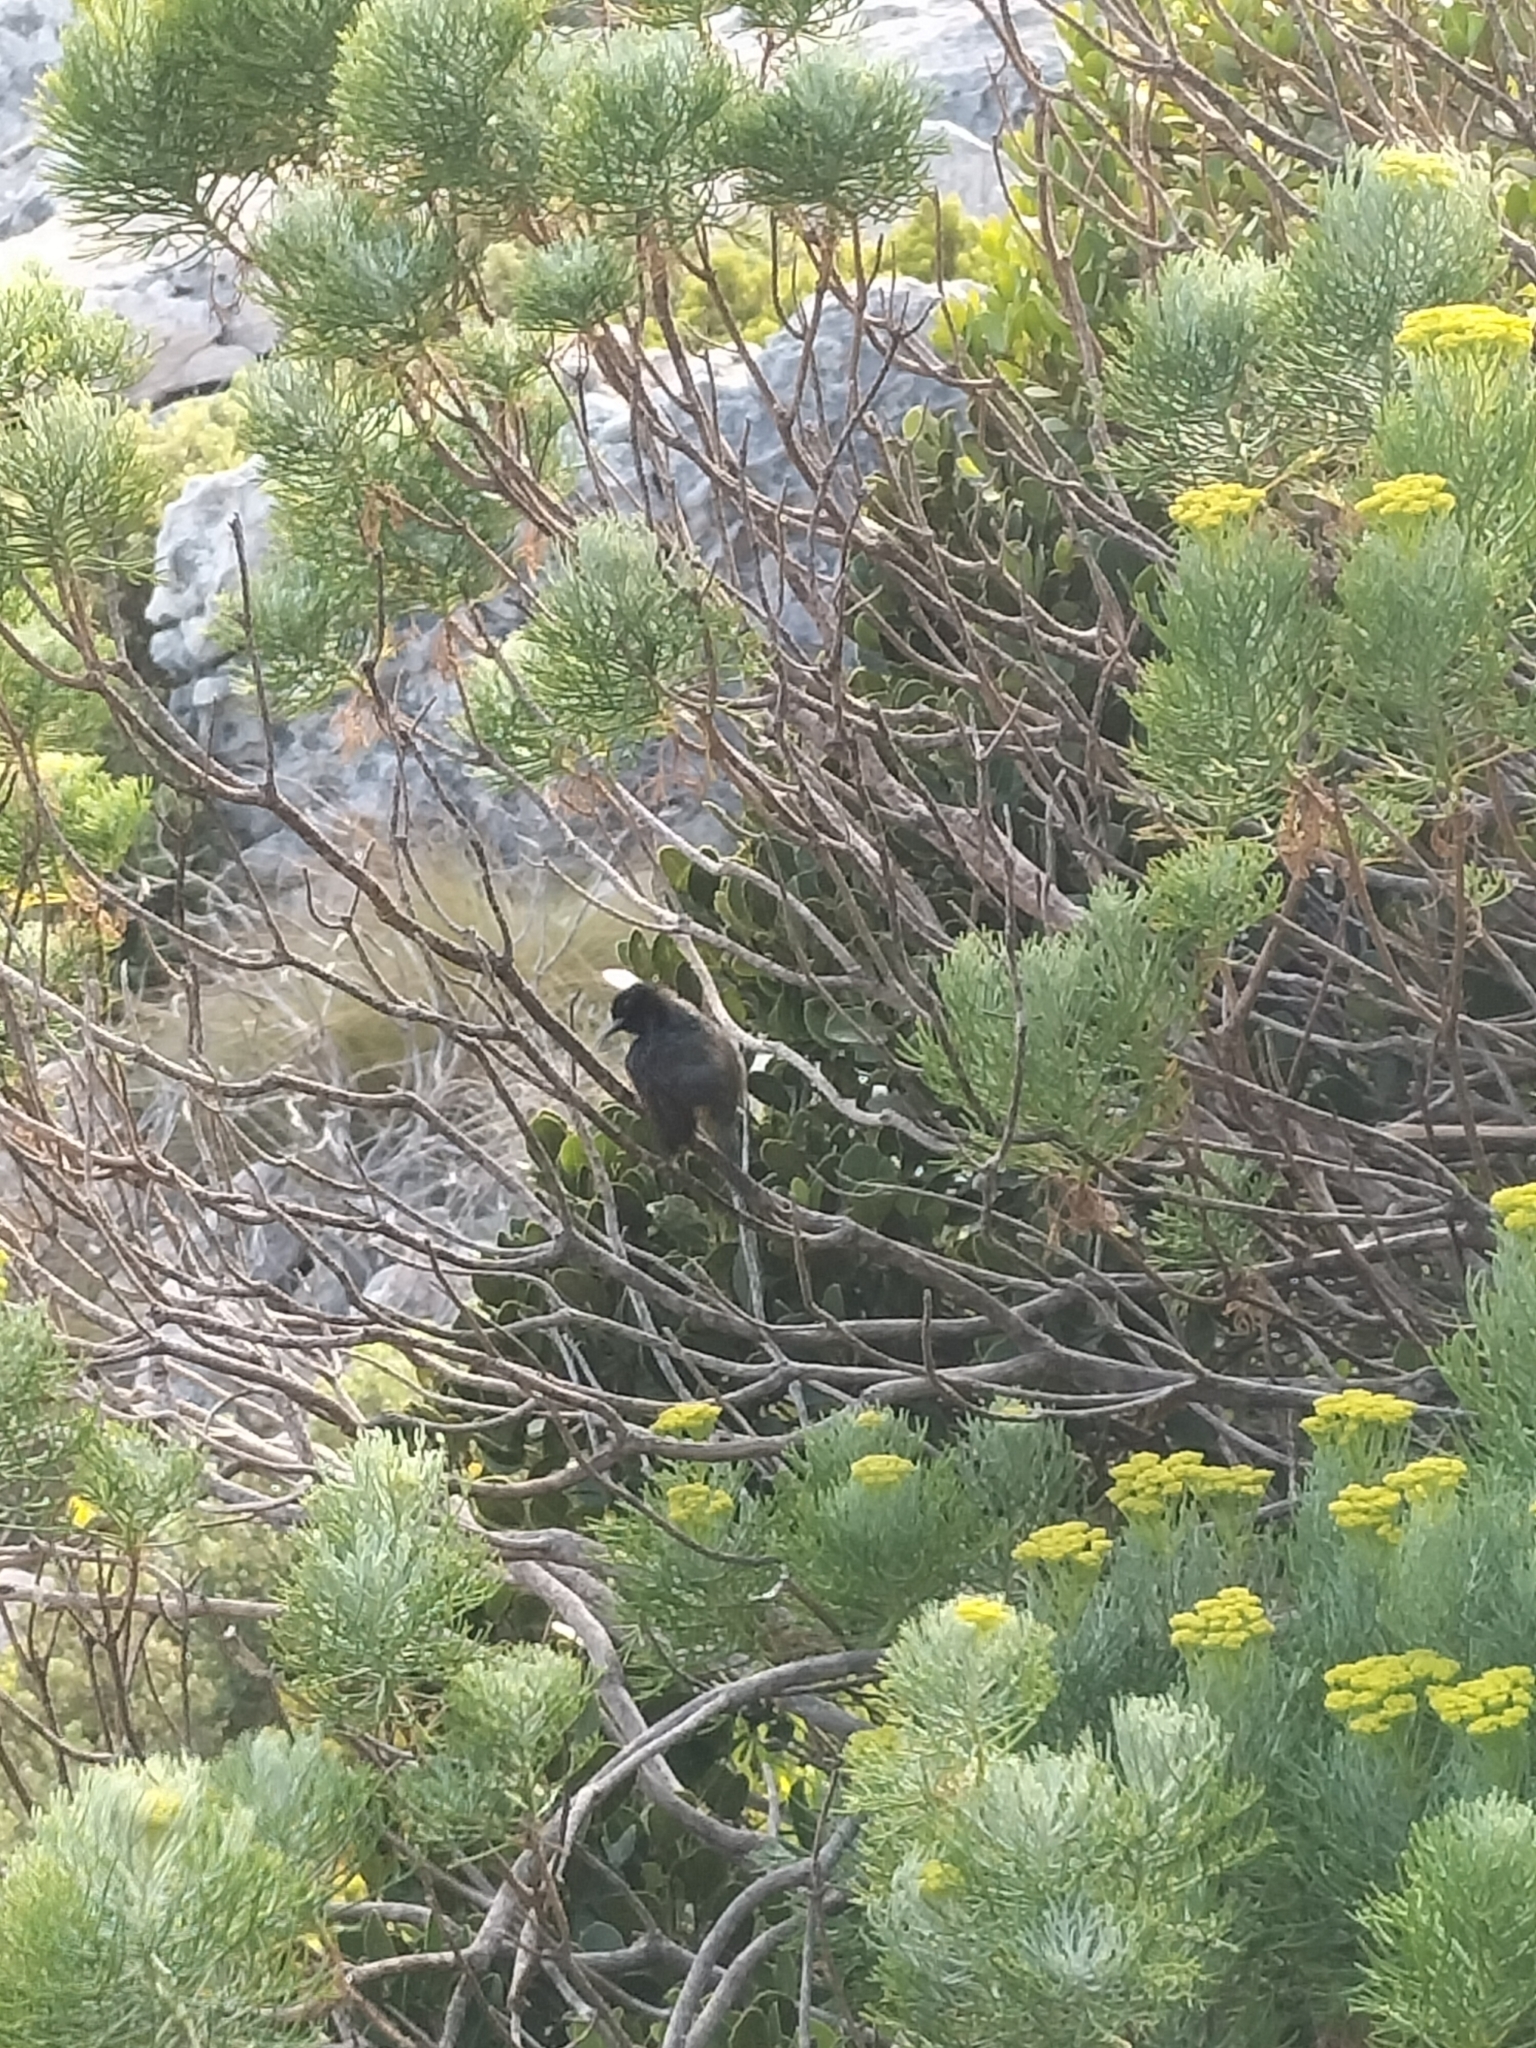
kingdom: Animalia
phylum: Chordata
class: Aves
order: Passeriformes
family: Nectariniidae
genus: Anthobaphes
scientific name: Anthobaphes violacea
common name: Orange-breasted sunbird
